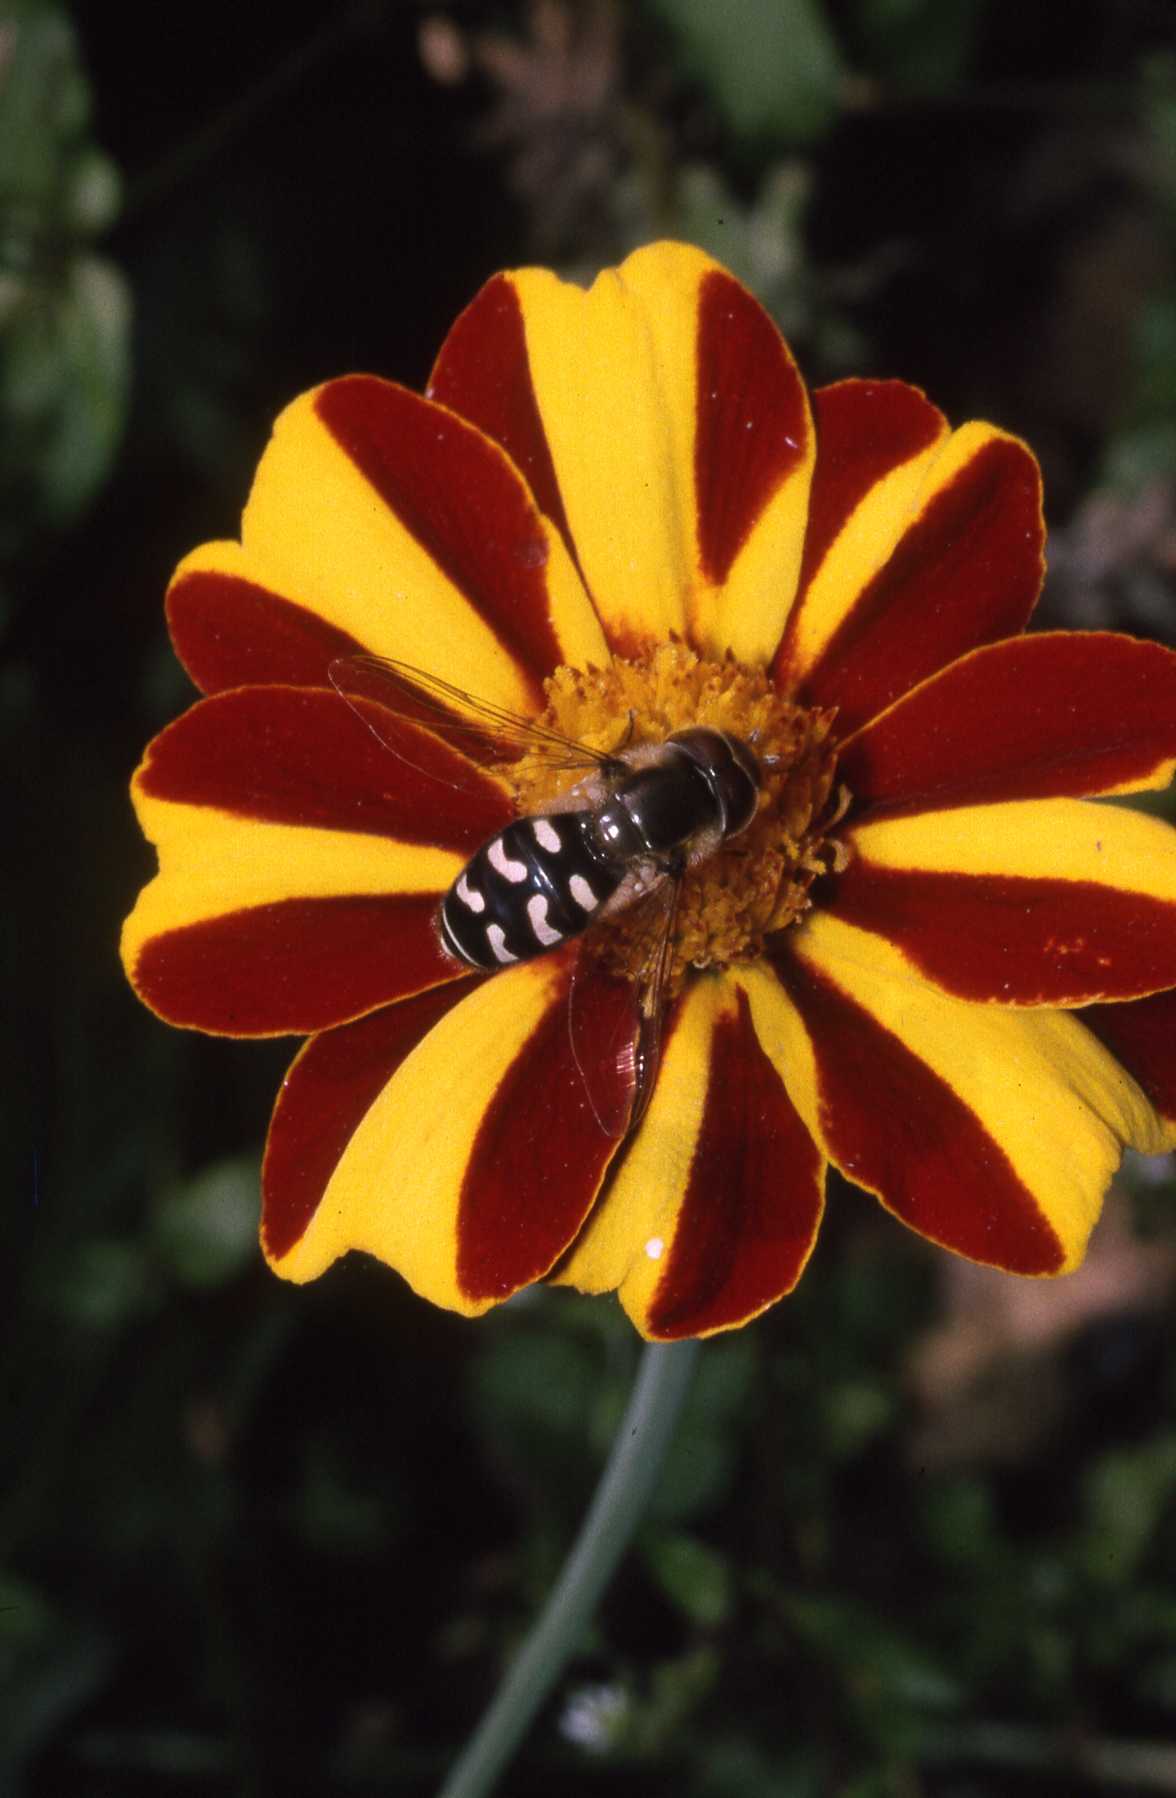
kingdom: Animalia
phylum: Arthropoda
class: Insecta
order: Diptera
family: Syrphidae
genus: Scaeva
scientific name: Scaeva pyrastri
